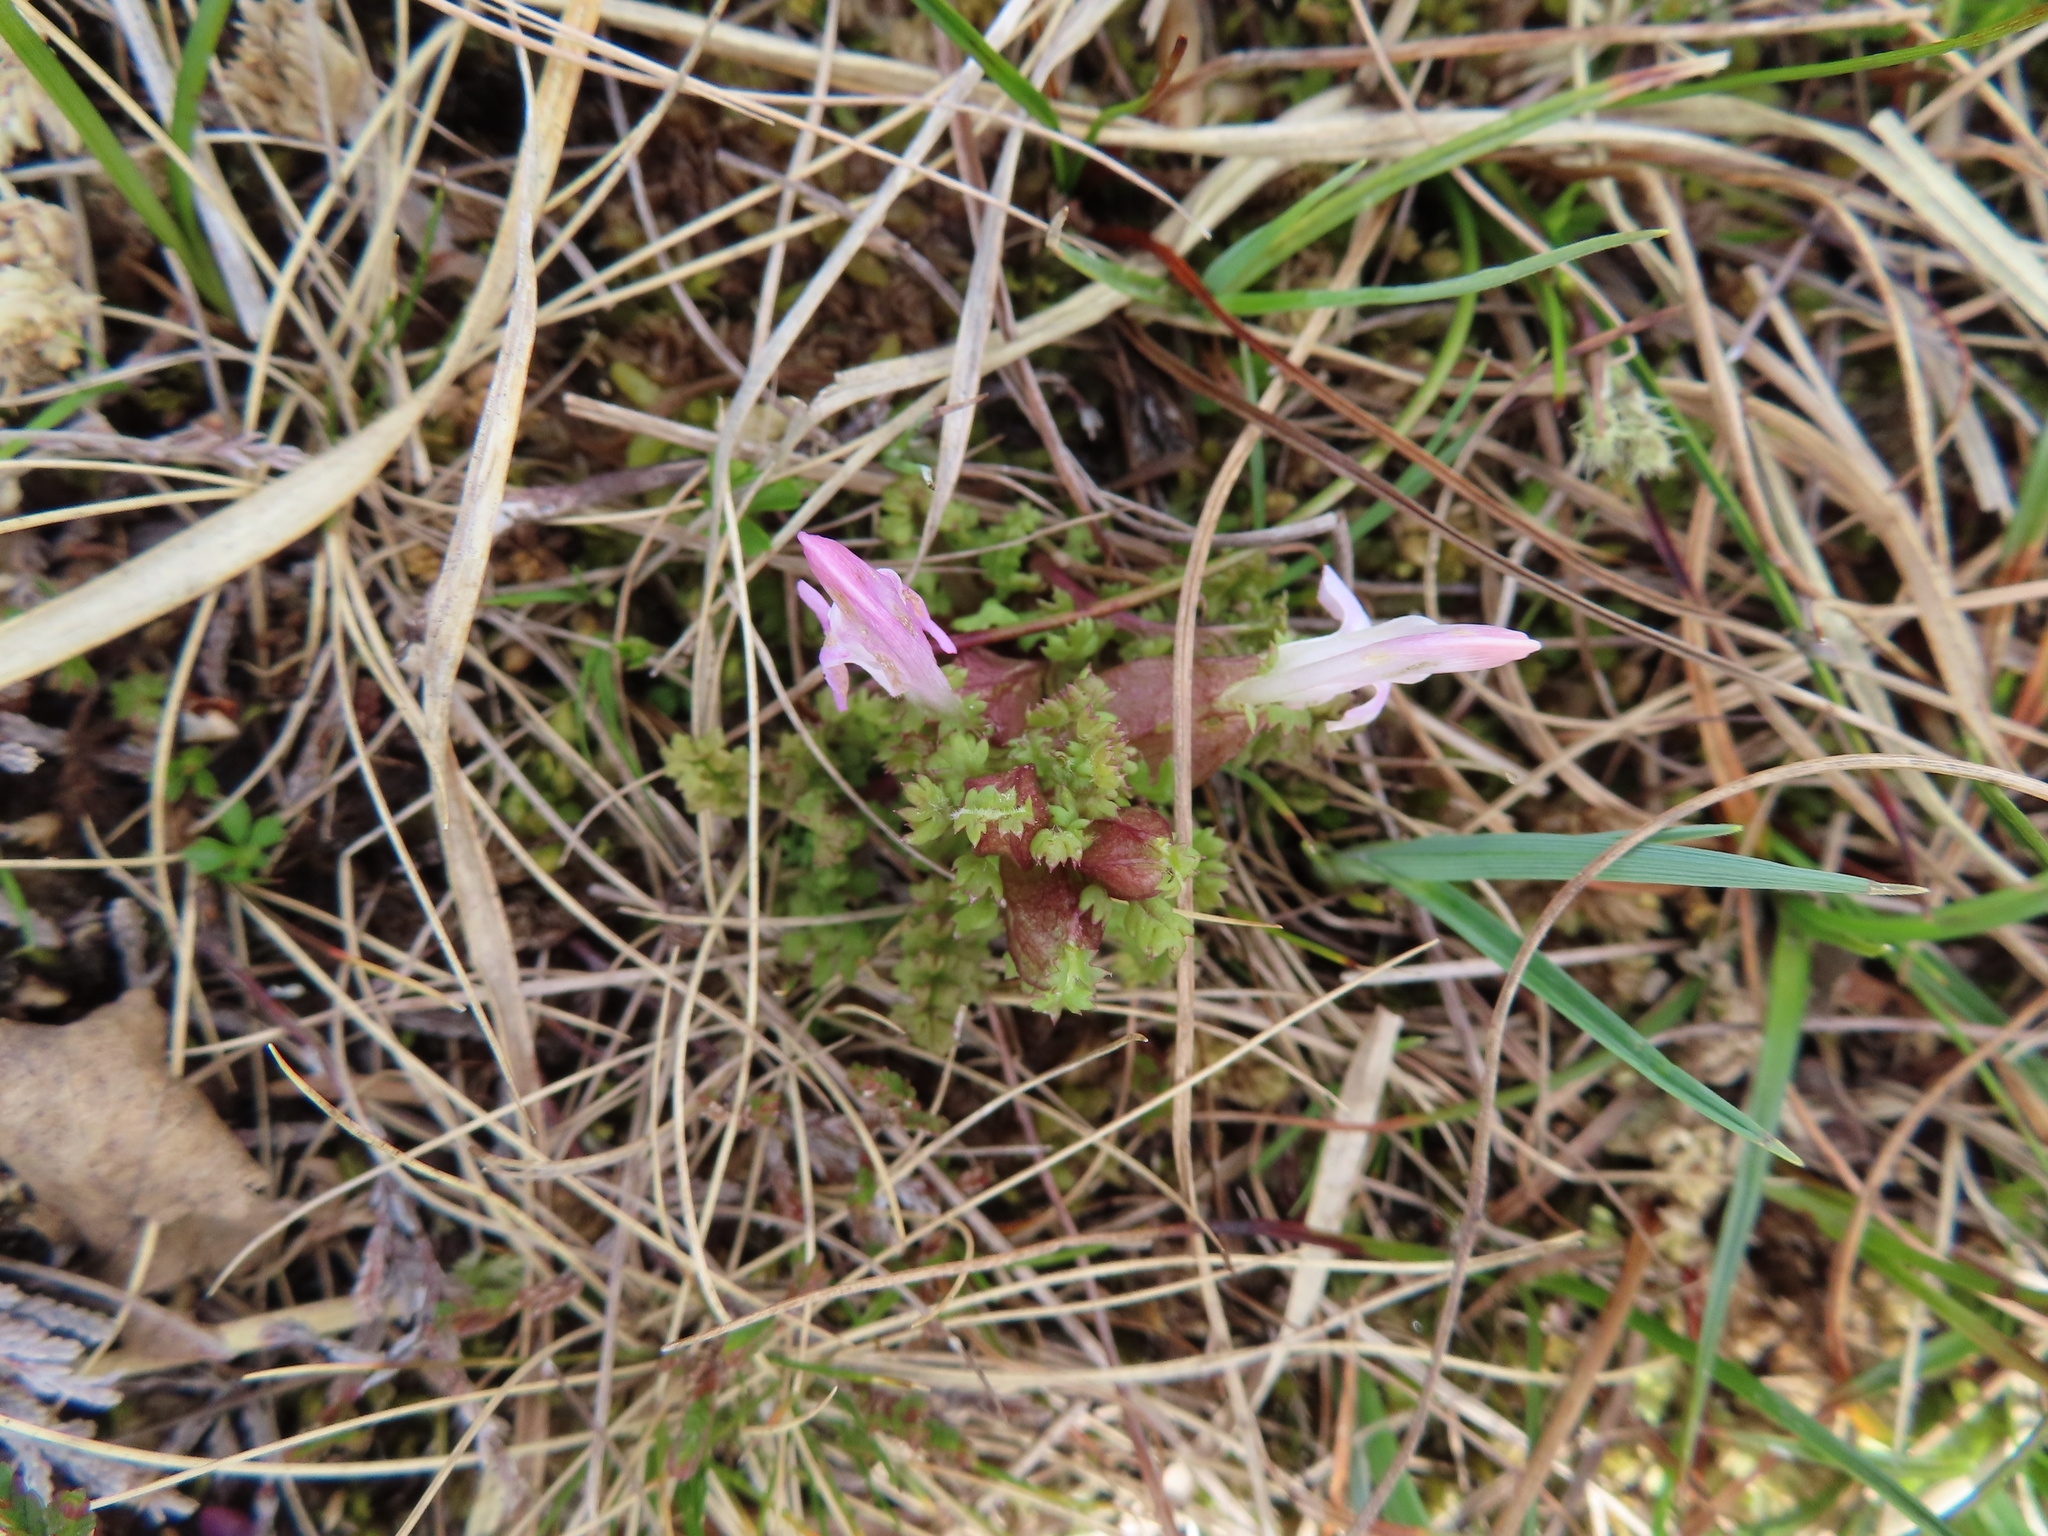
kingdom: Plantae
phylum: Tracheophyta
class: Magnoliopsida
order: Lamiales
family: Orobanchaceae
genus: Pedicularis
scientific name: Pedicularis sylvatica
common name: Lousewort
